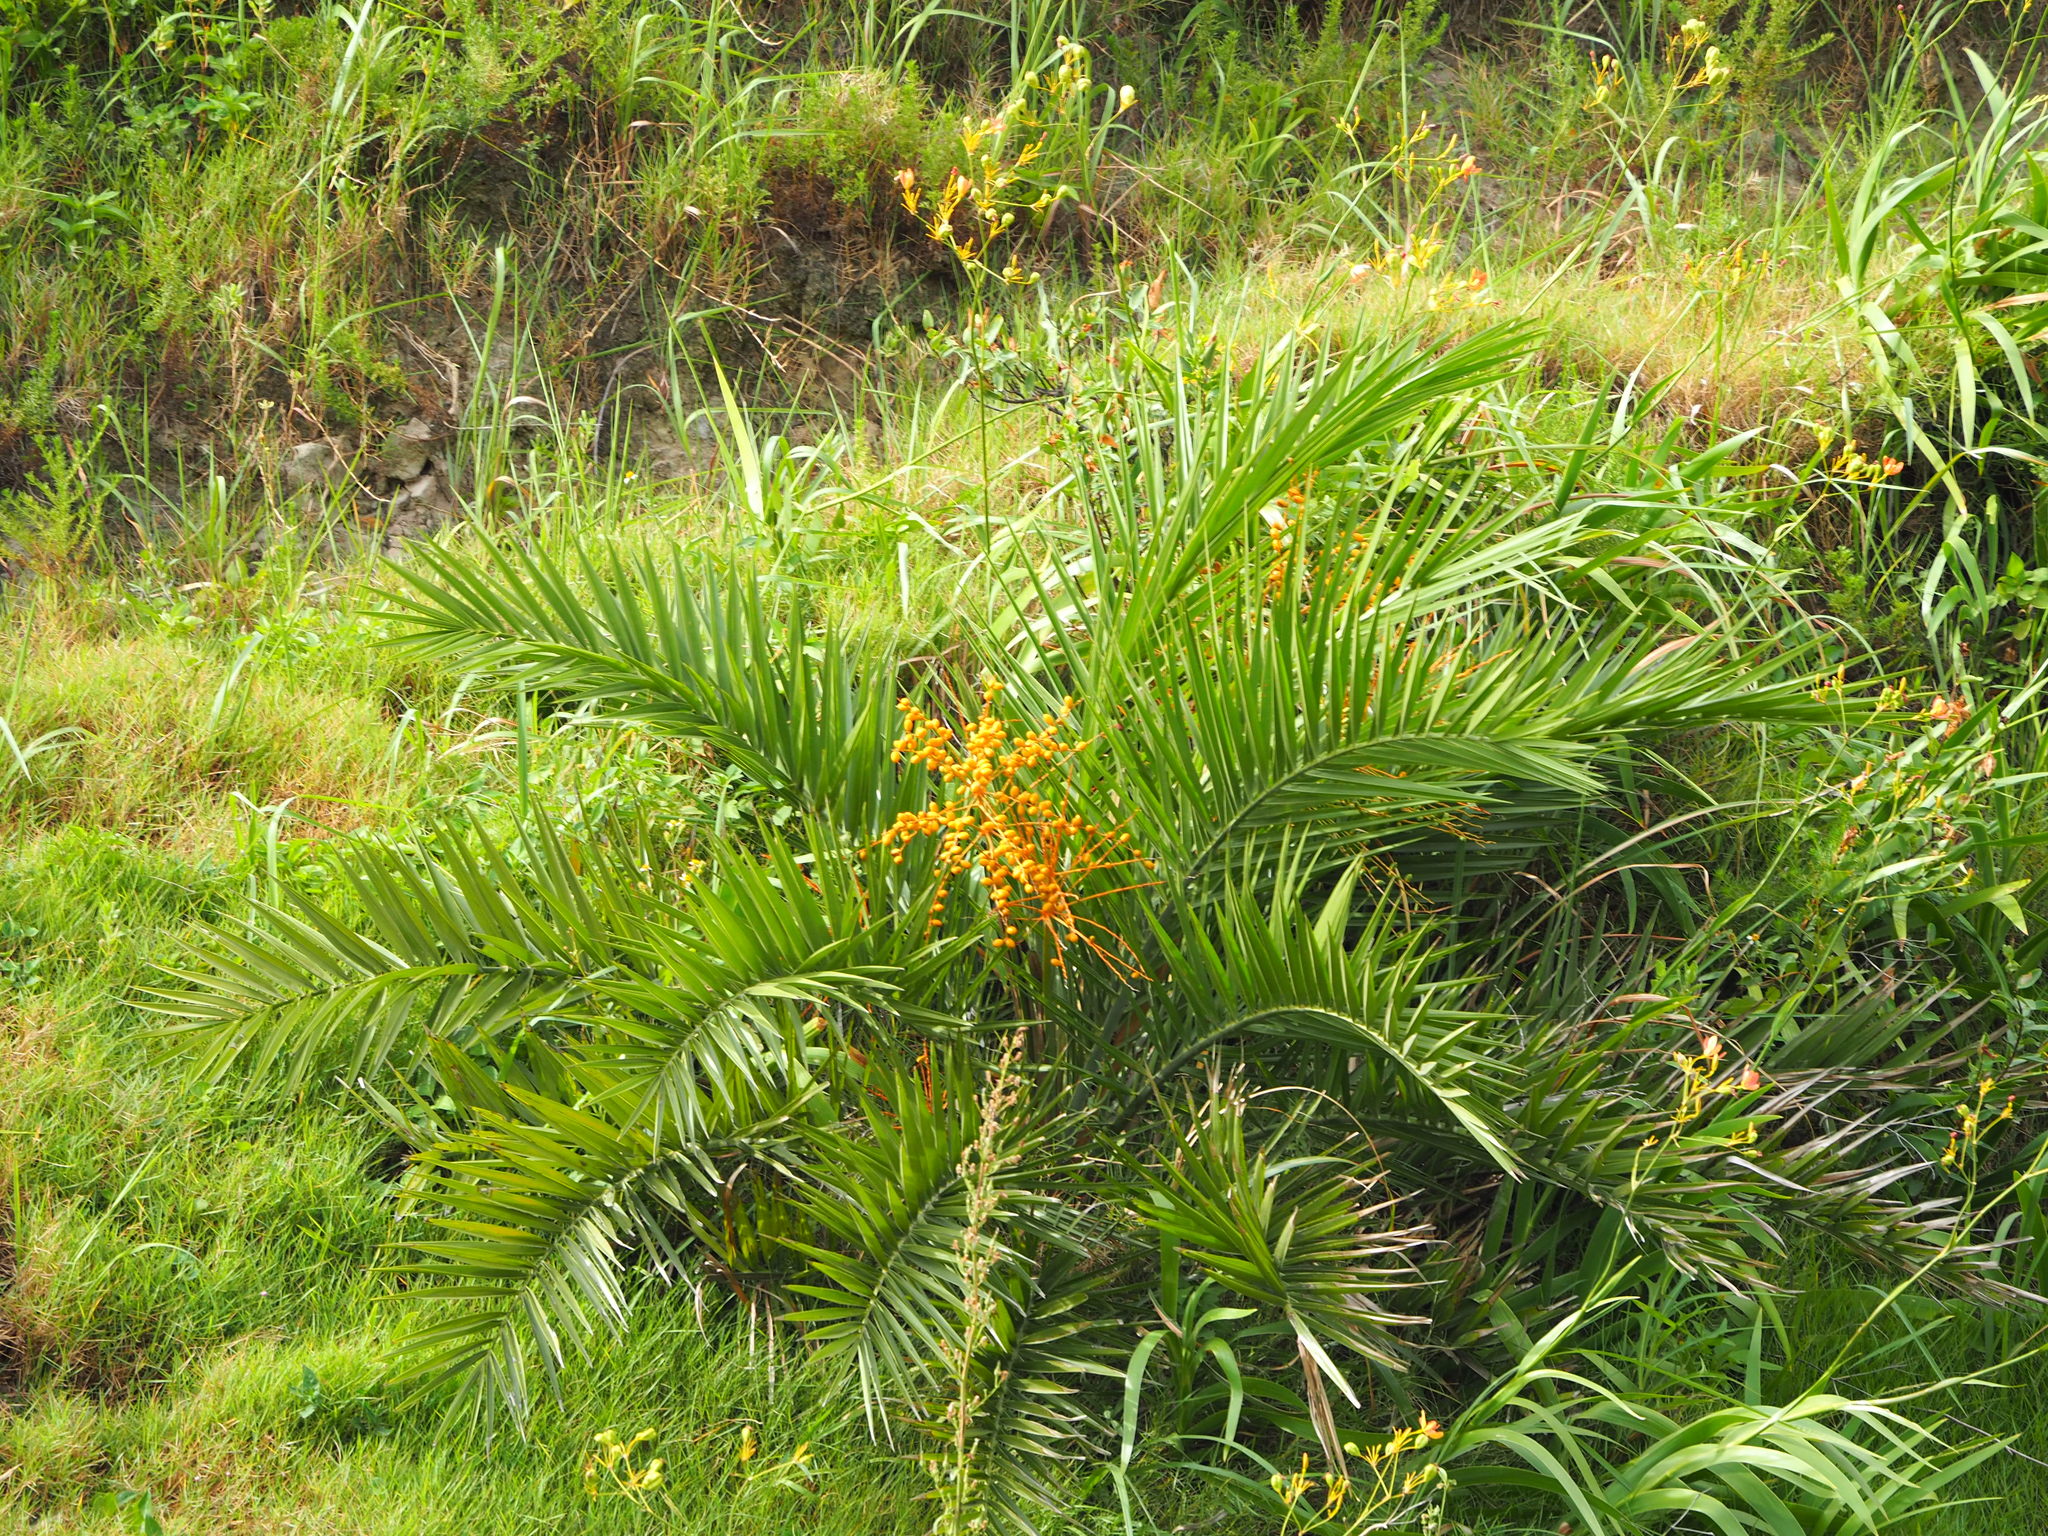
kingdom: Plantae
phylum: Tracheophyta
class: Liliopsida
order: Arecales
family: Arecaceae
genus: Phoenix
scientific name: Phoenix loureiroi
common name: Loureiro's palm
